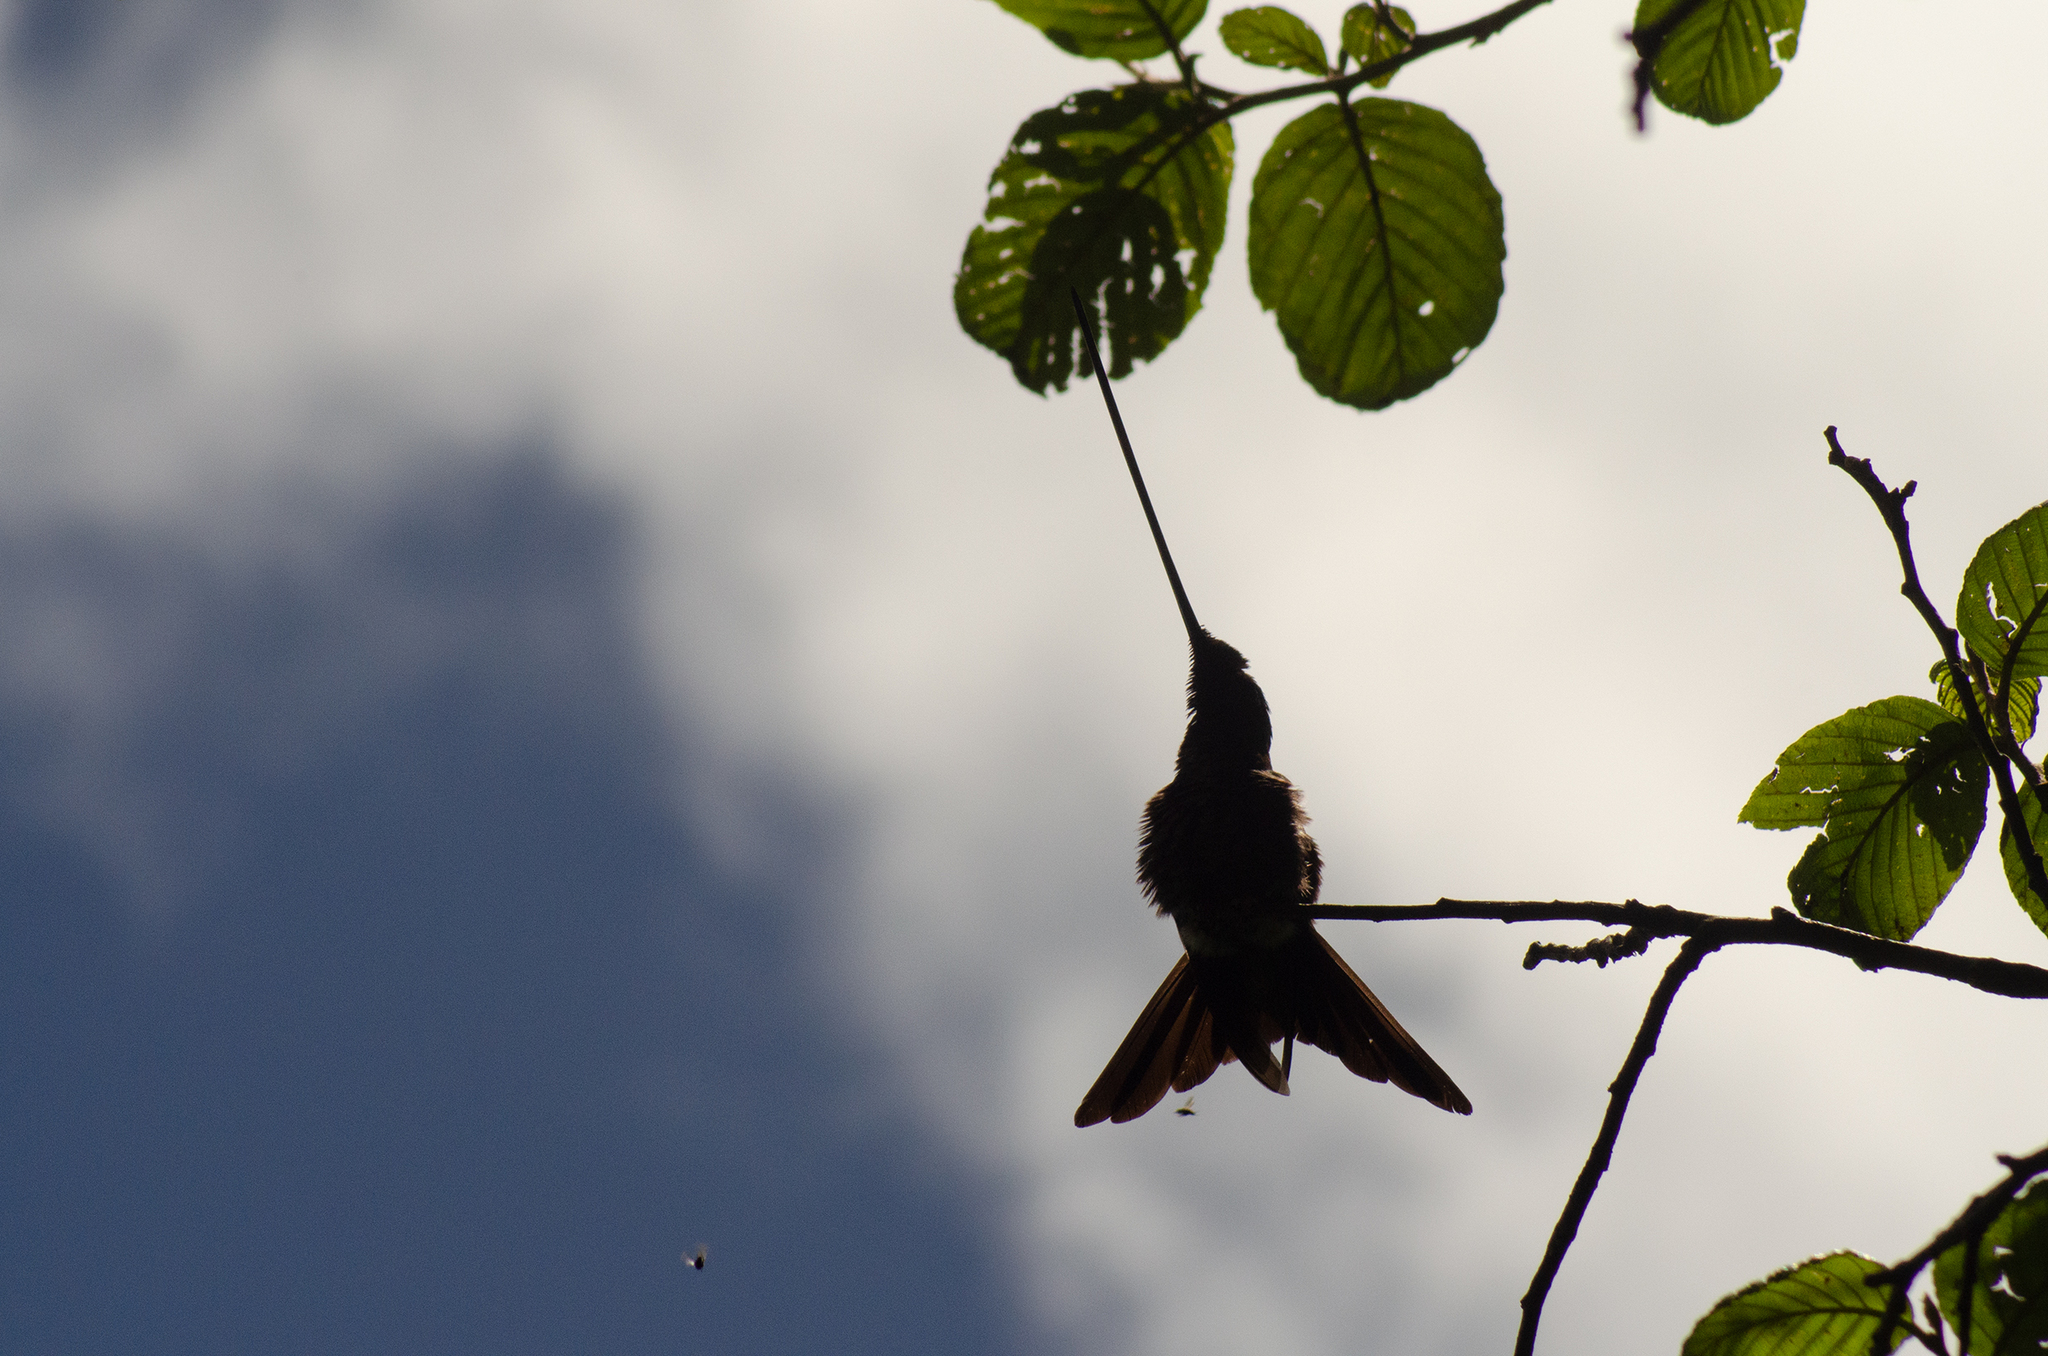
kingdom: Animalia
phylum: Chordata
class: Aves
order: Apodiformes
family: Trochilidae
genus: Ensifera
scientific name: Ensifera ensifera
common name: Sword-billed hummingbird
